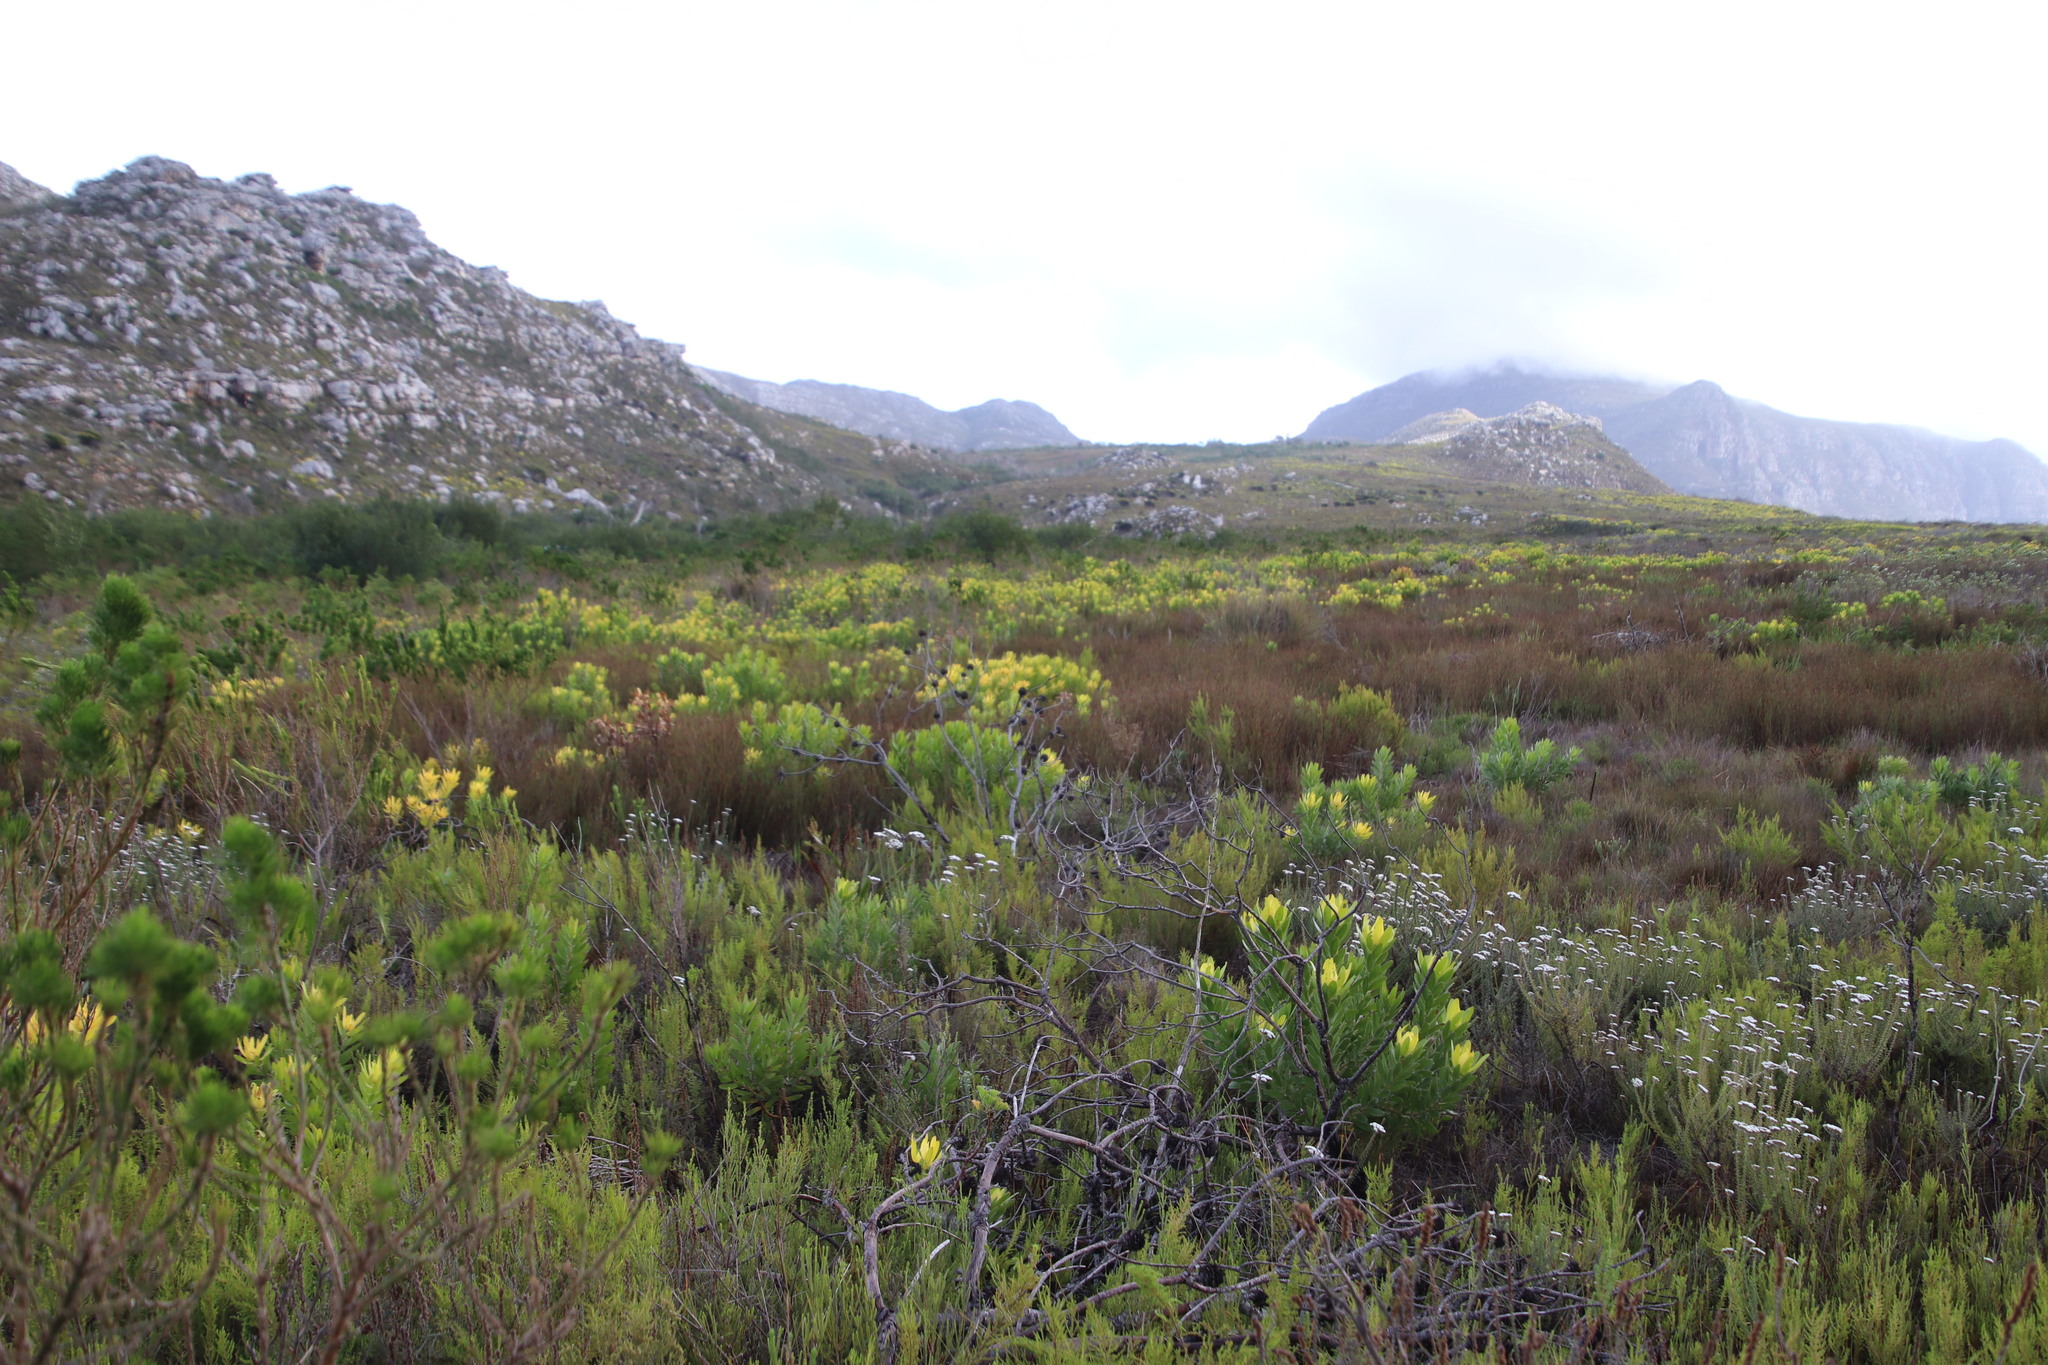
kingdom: Plantae
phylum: Tracheophyta
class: Magnoliopsida
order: Proteales
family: Proteaceae
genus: Leucadendron
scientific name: Leucadendron laureolum
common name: Golden sunshinebush
